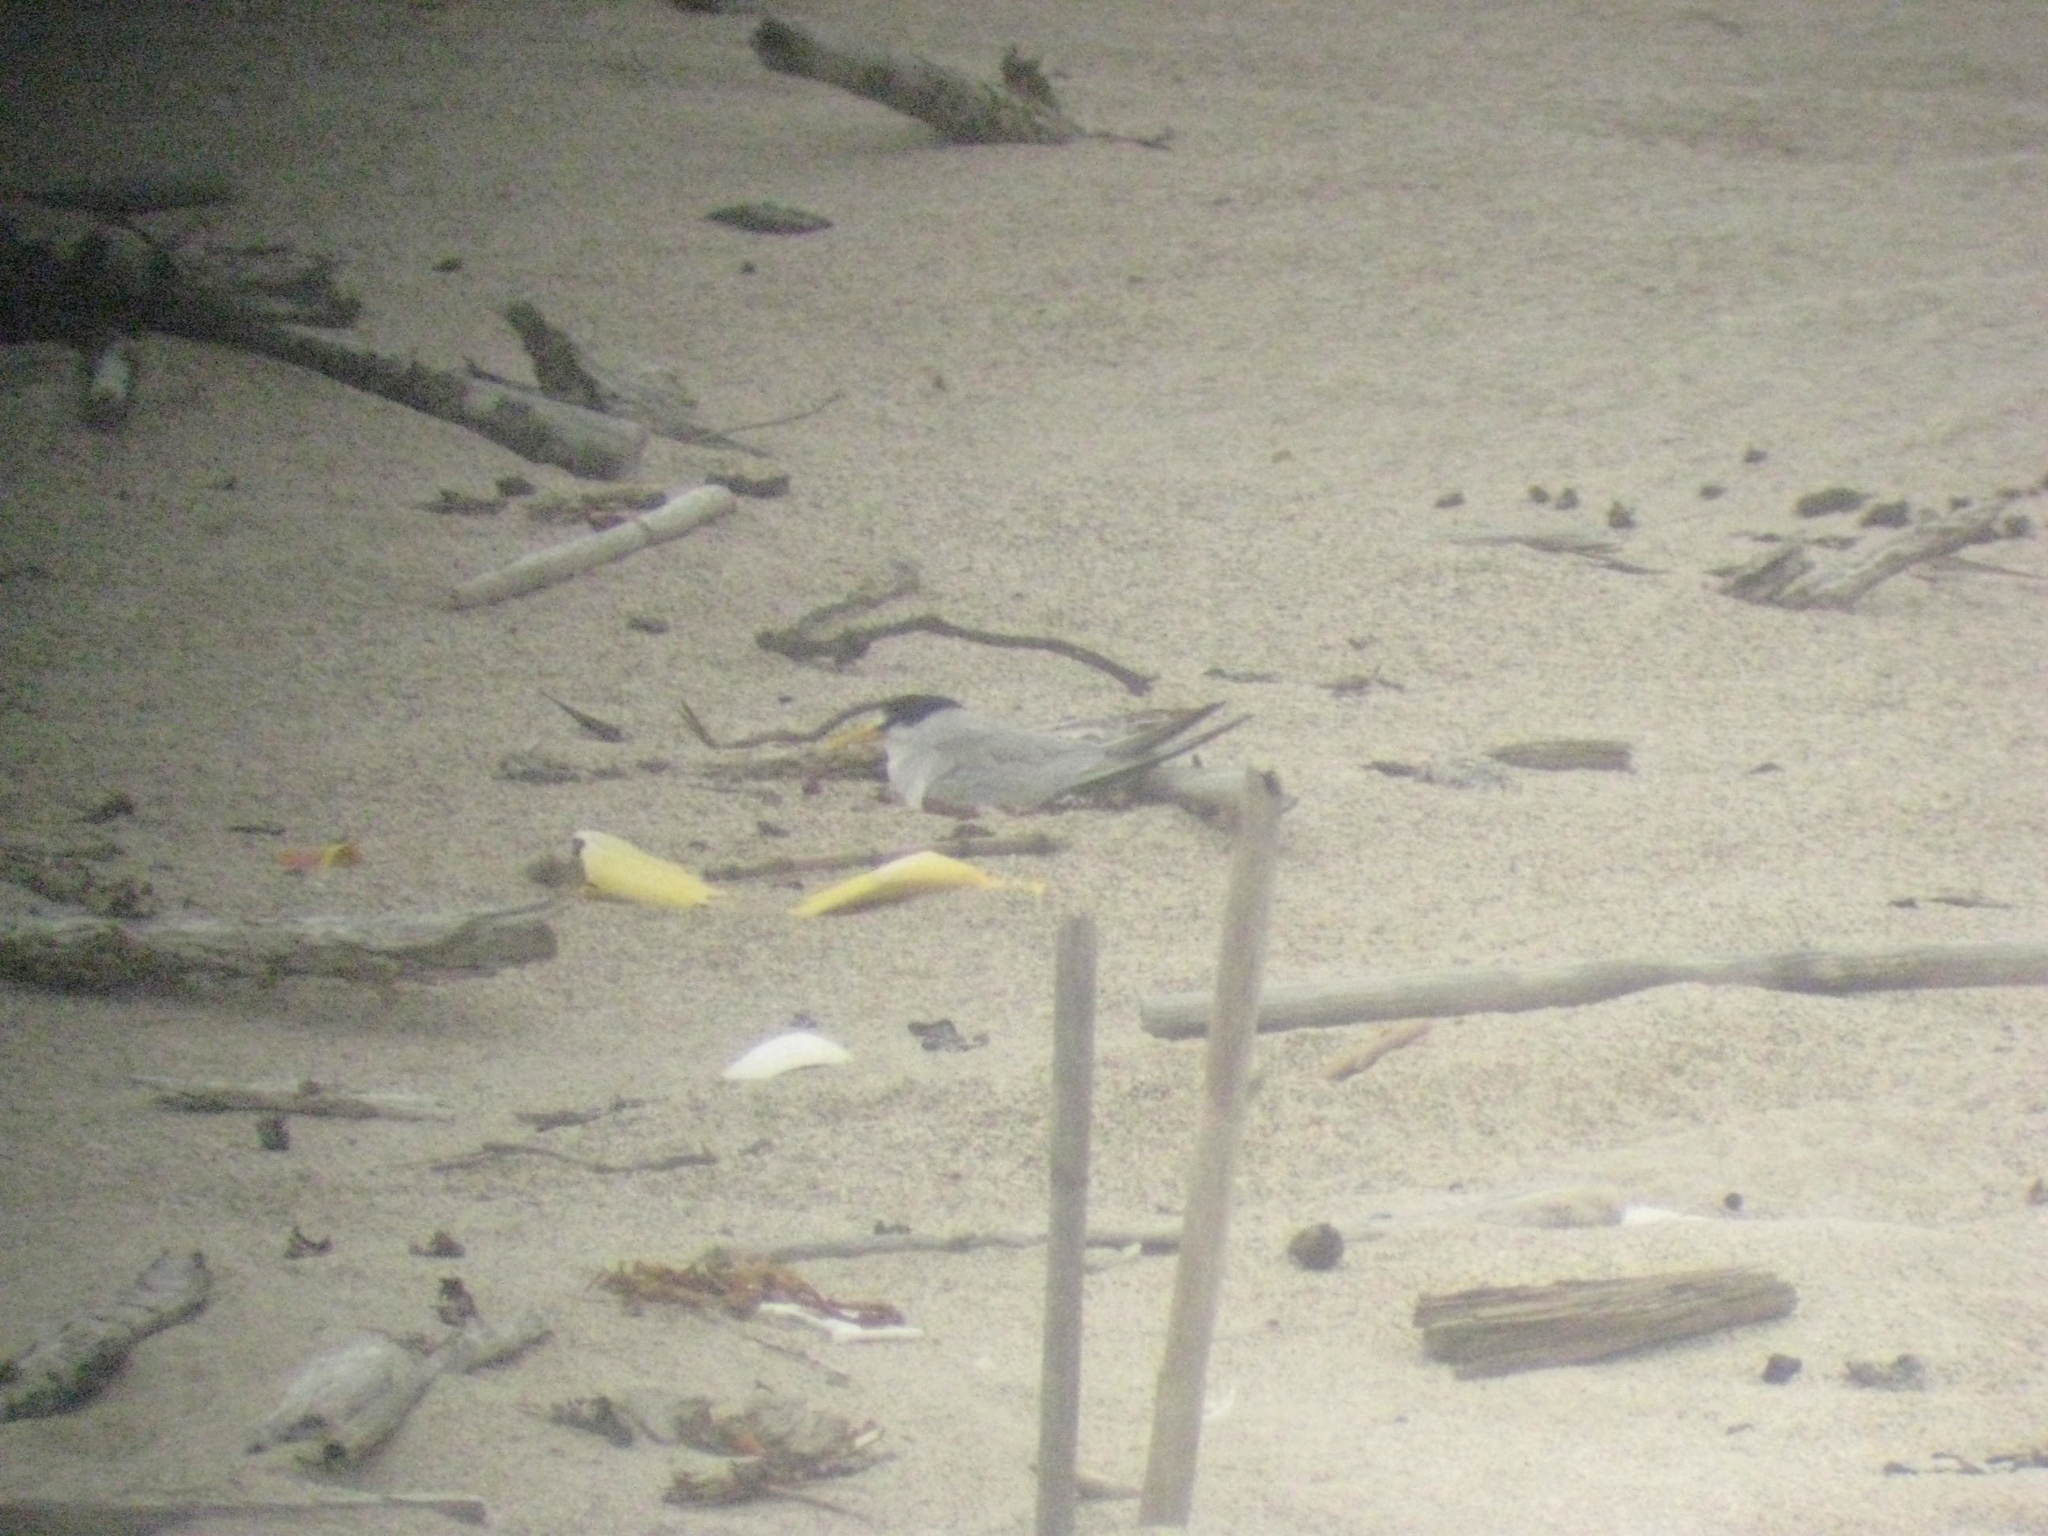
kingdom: Animalia
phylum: Chordata
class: Aves
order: Charadriiformes
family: Laridae
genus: Sternula
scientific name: Sternula antillarum
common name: Least tern
